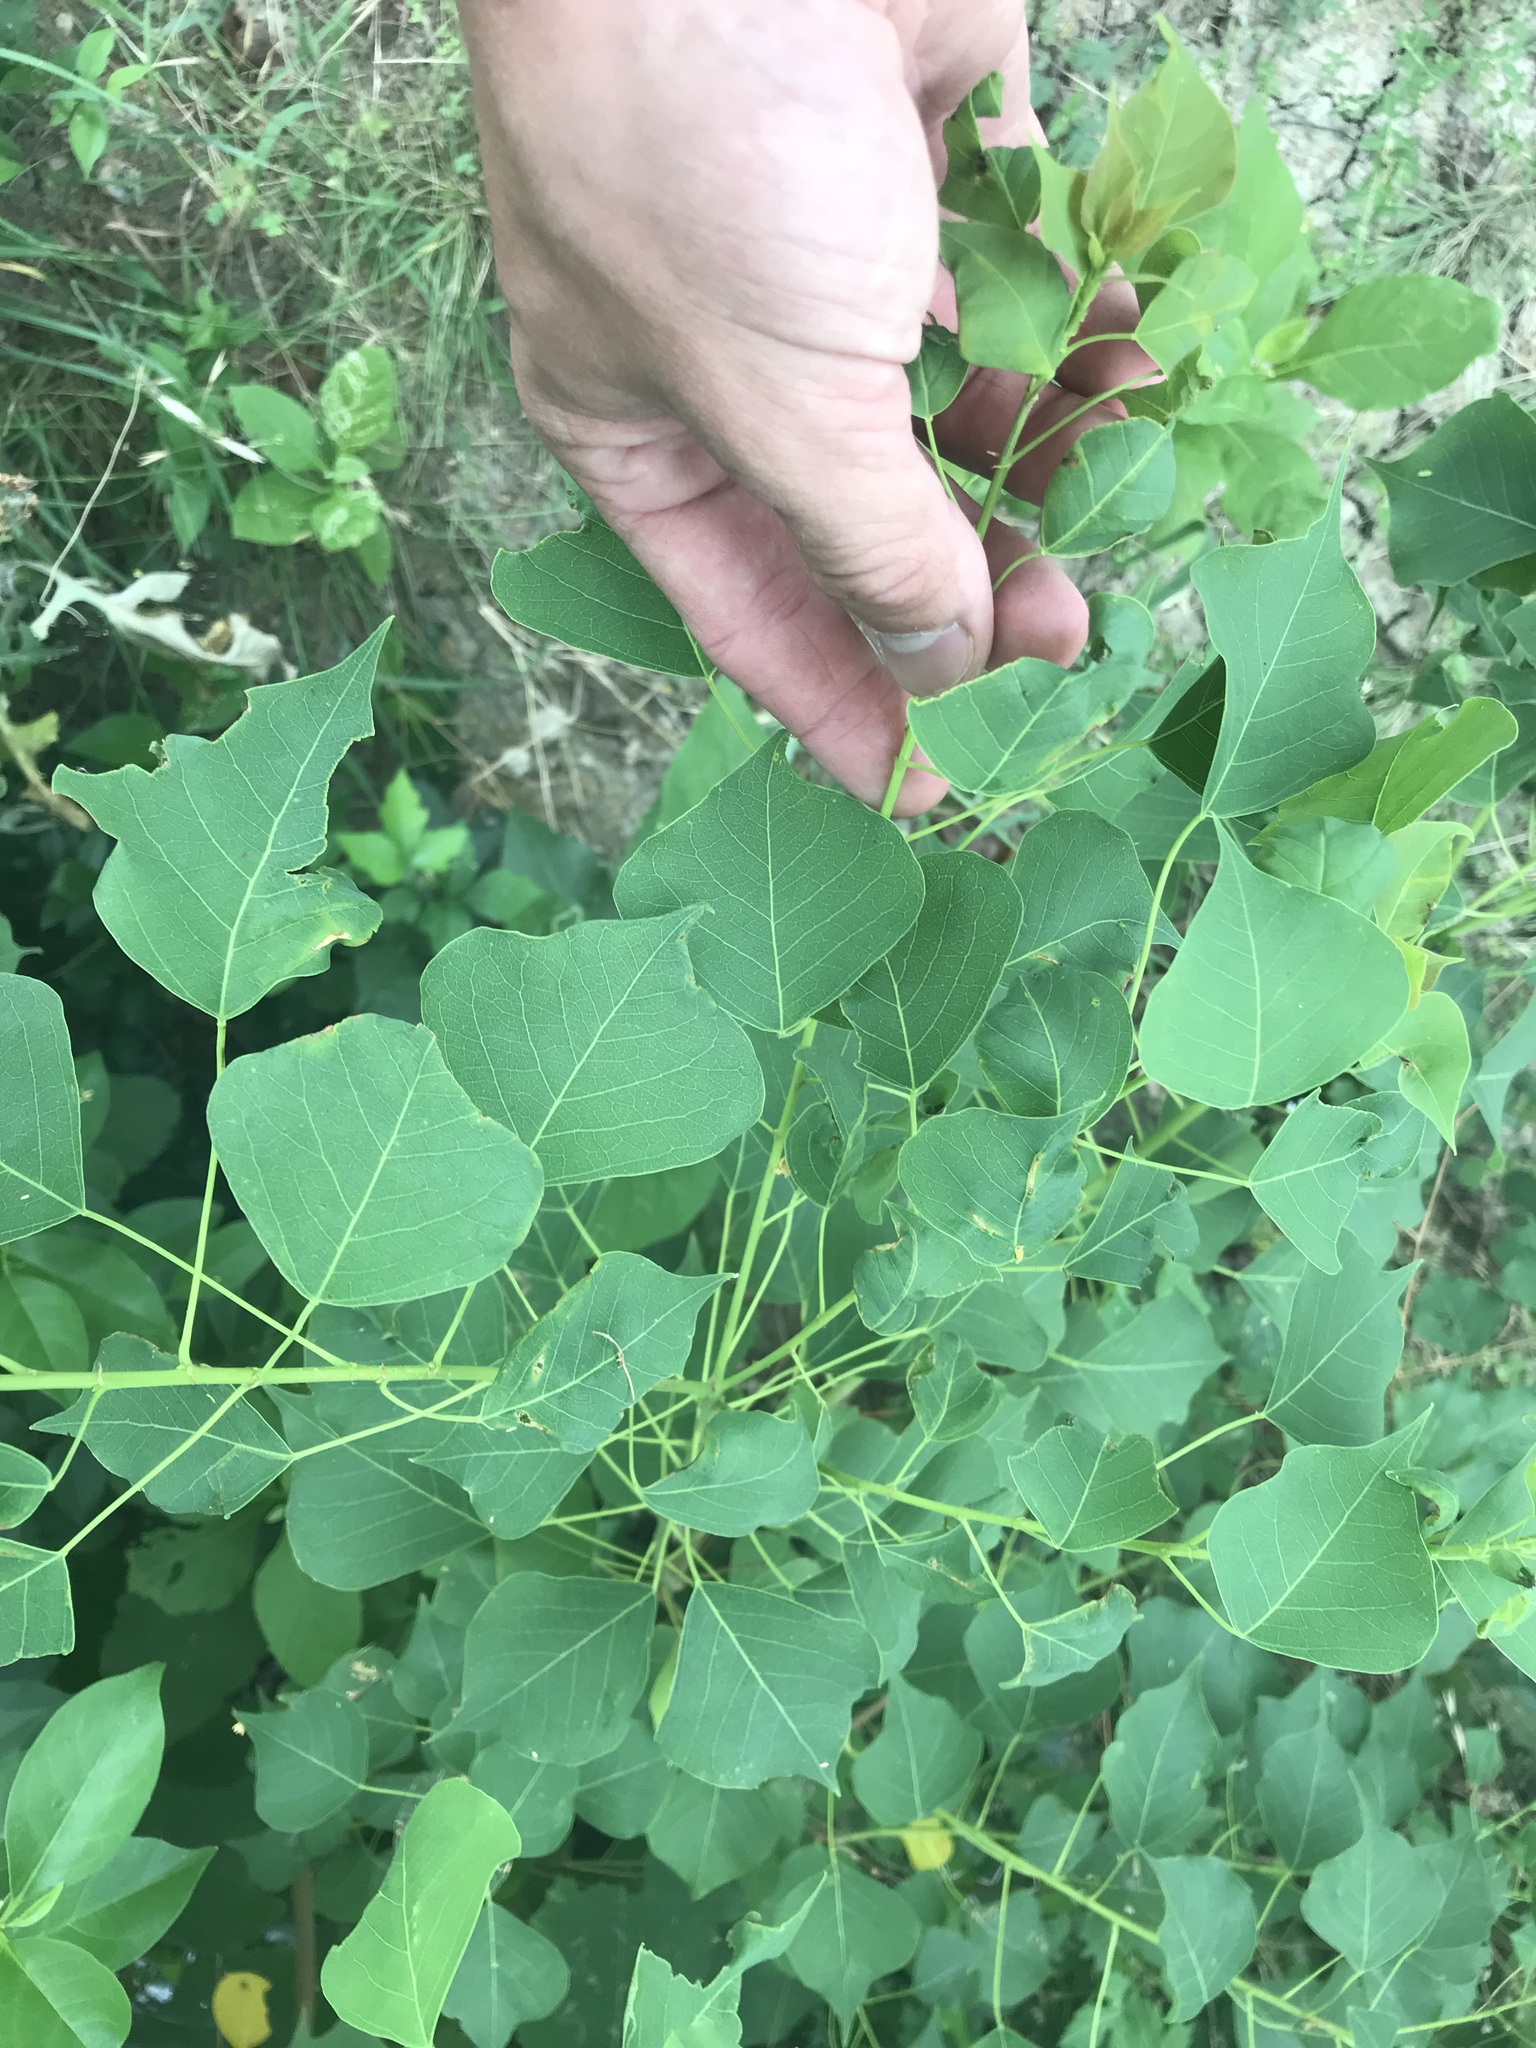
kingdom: Plantae
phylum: Tracheophyta
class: Magnoliopsida
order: Malpighiales
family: Euphorbiaceae
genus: Triadica
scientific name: Triadica sebifera
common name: Chinese tallow
